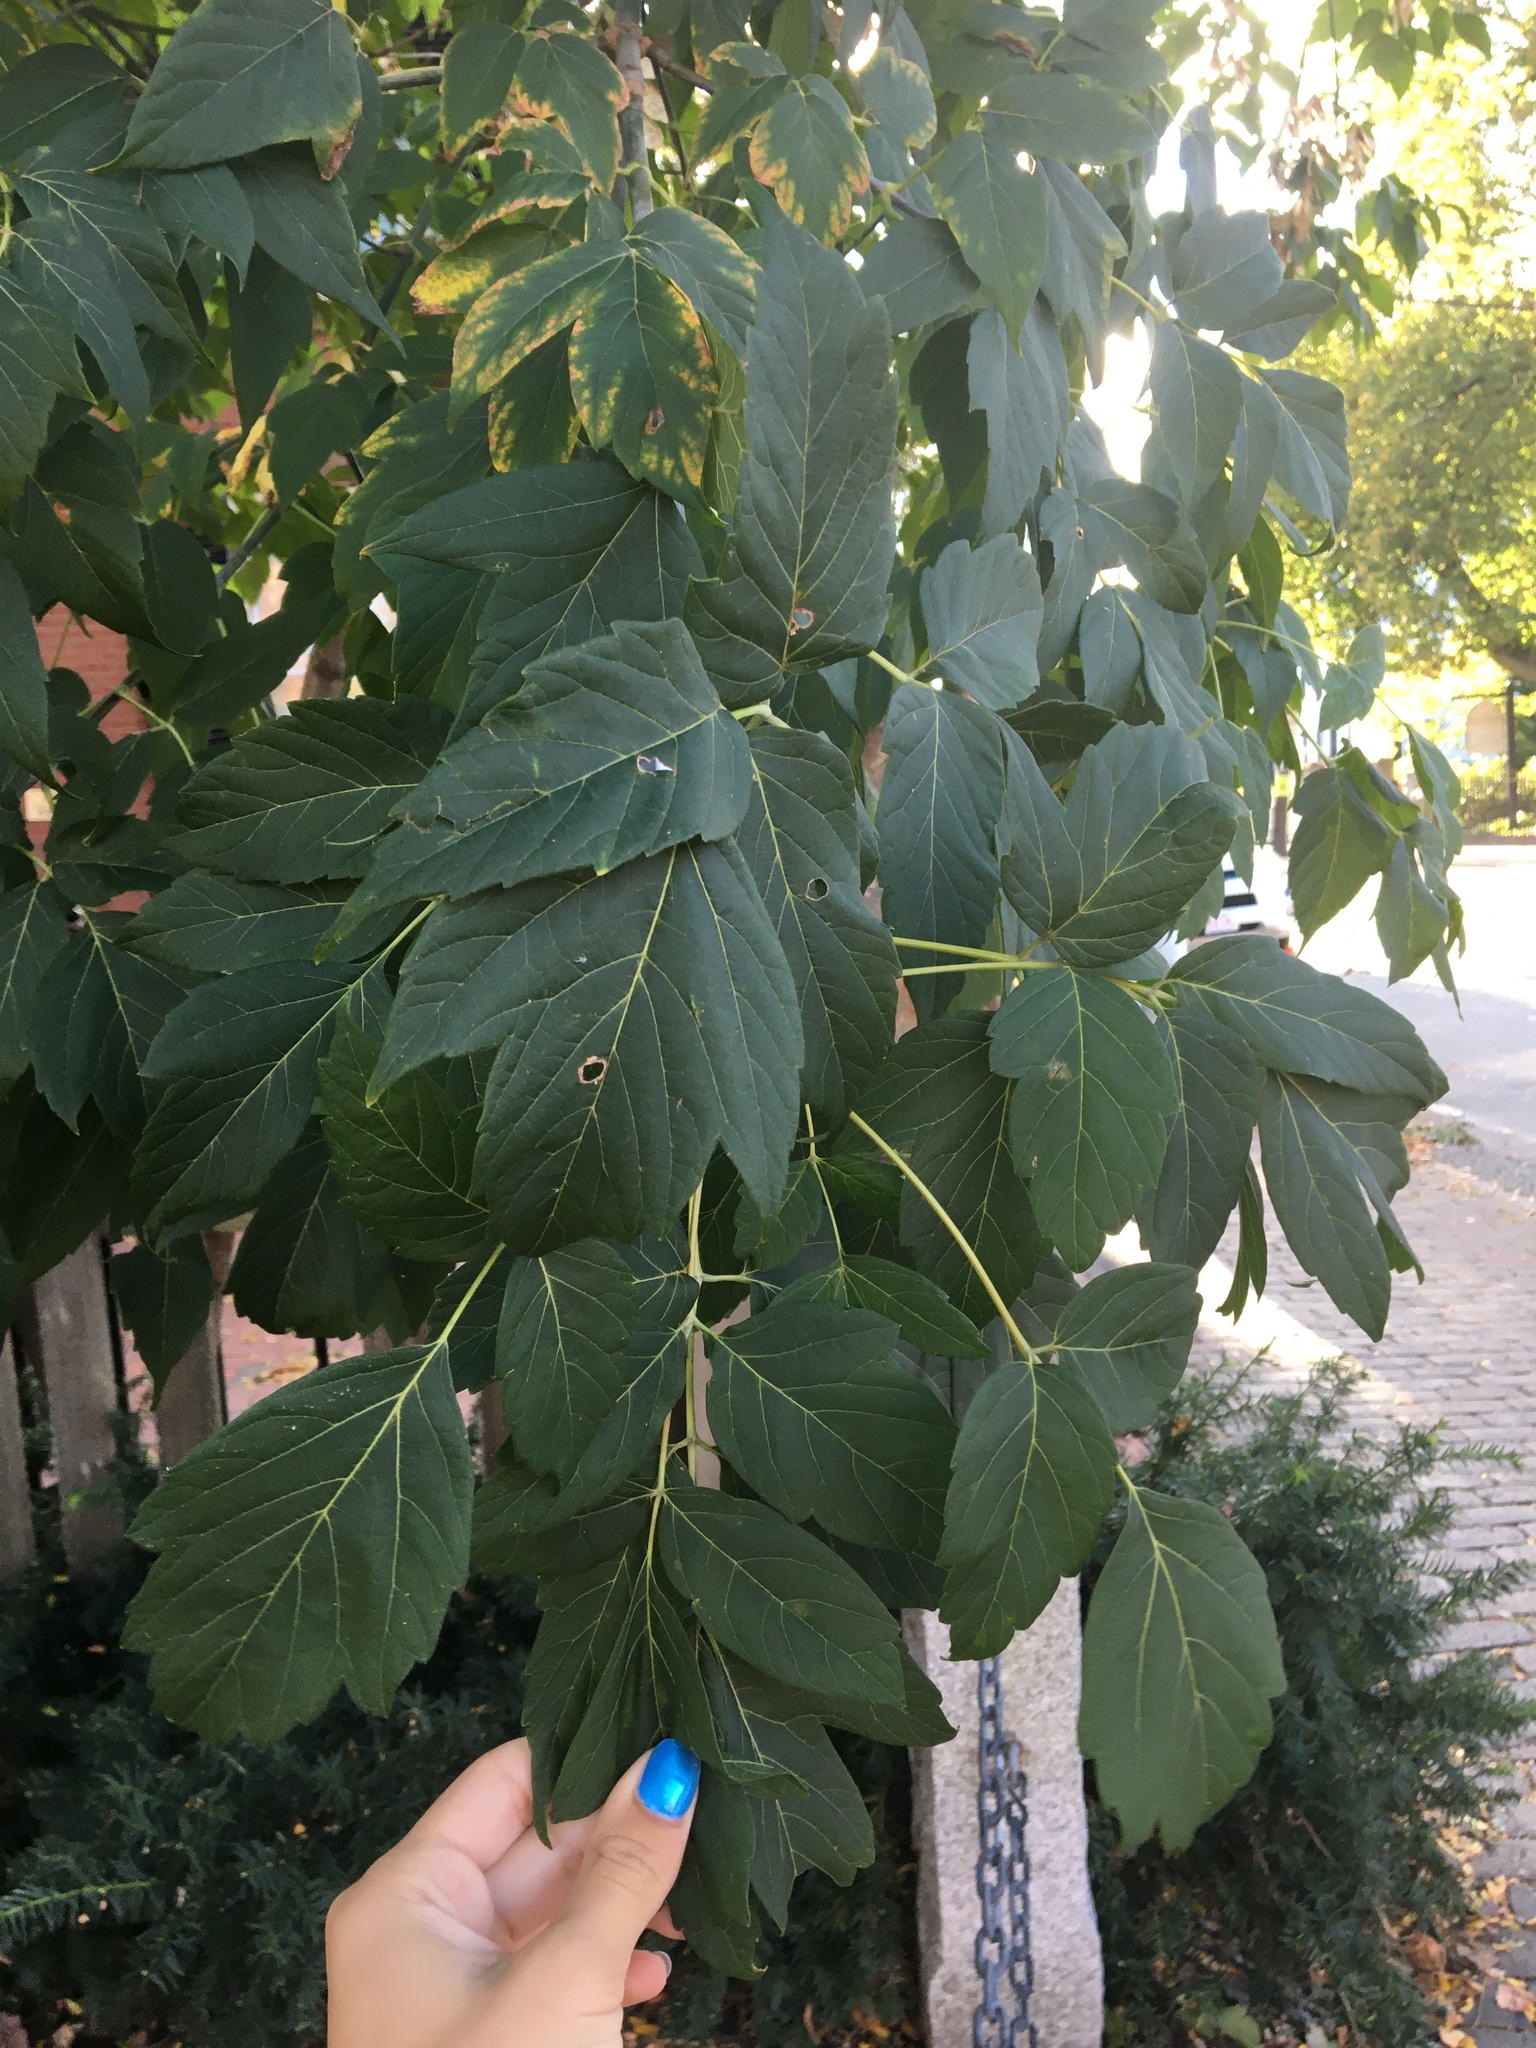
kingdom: Plantae
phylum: Tracheophyta
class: Magnoliopsida
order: Sapindales
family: Sapindaceae
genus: Acer
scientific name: Acer negundo
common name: Ashleaf maple
